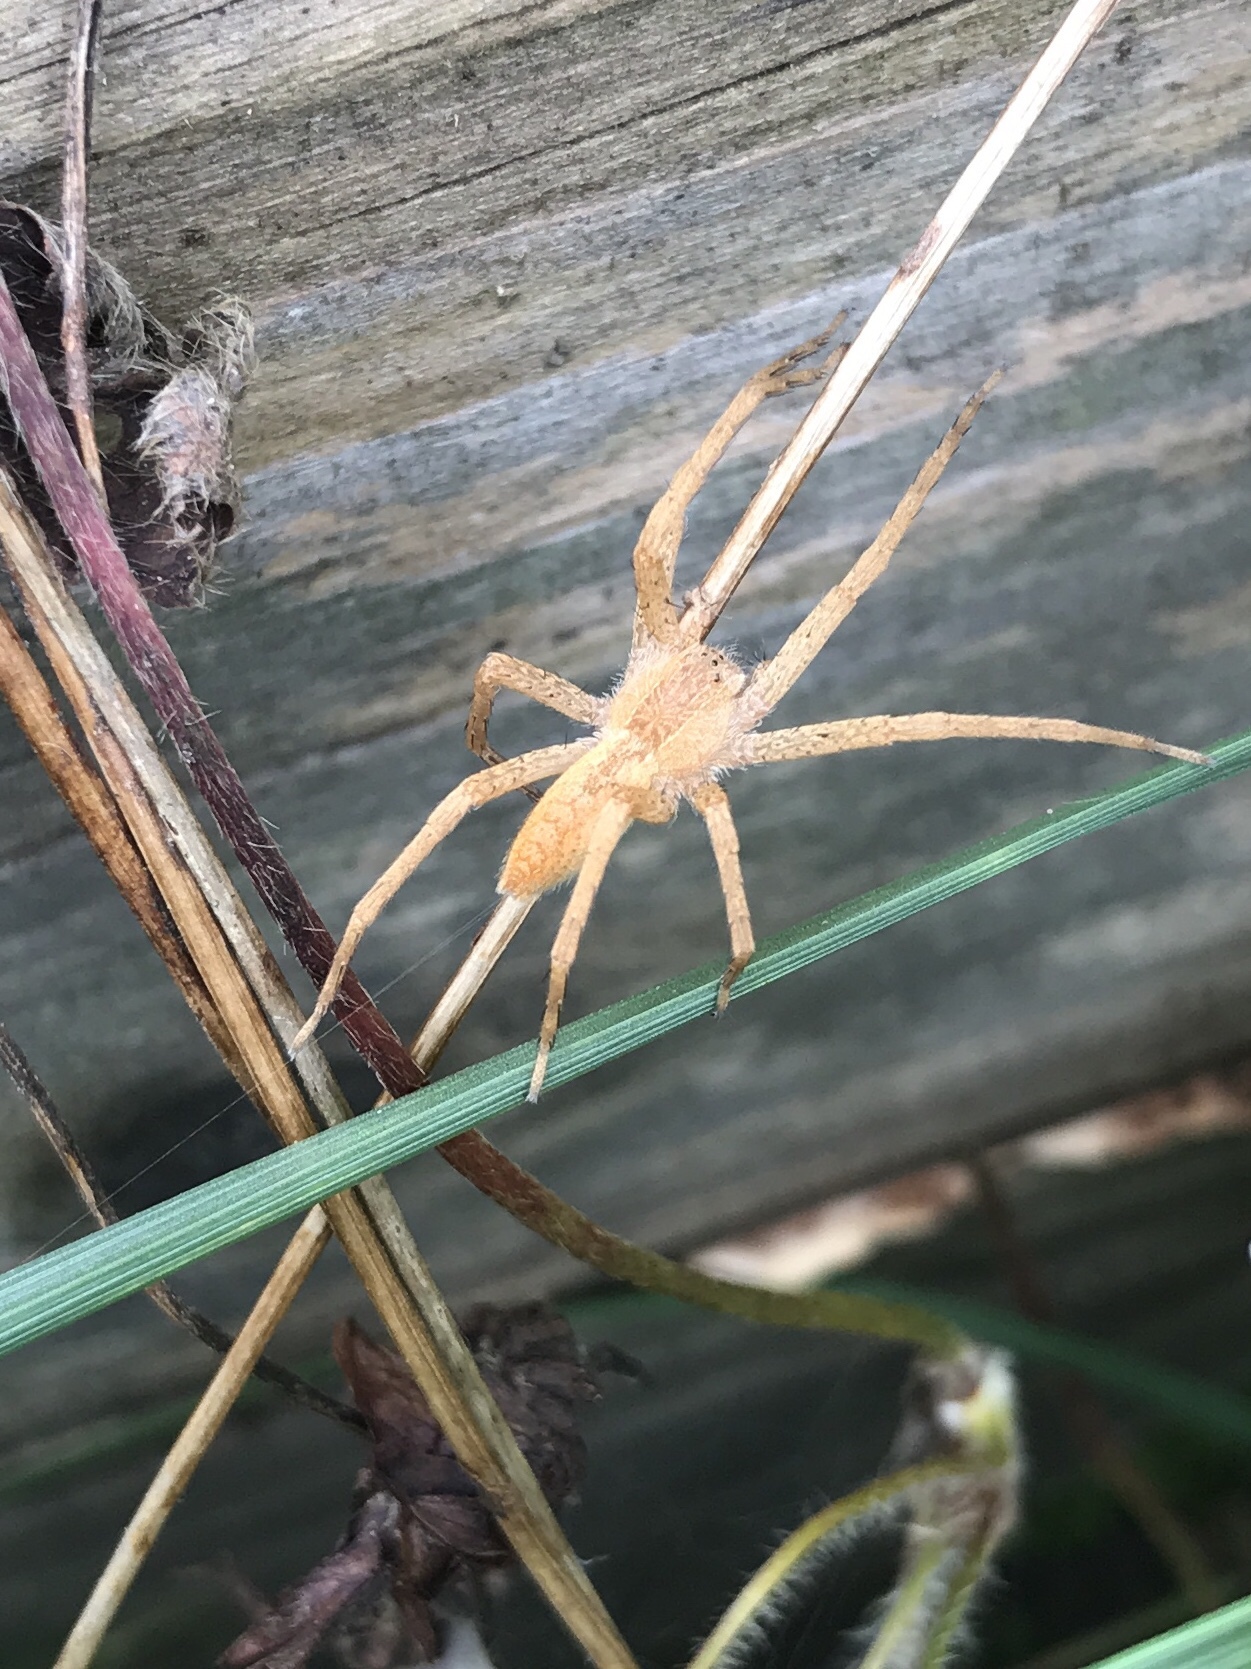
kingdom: Animalia
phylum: Arthropoda
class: Arachnida
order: Araneae
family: Pisauridae
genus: Pisaurina
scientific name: Pisaurina mira
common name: American nursery web spider
